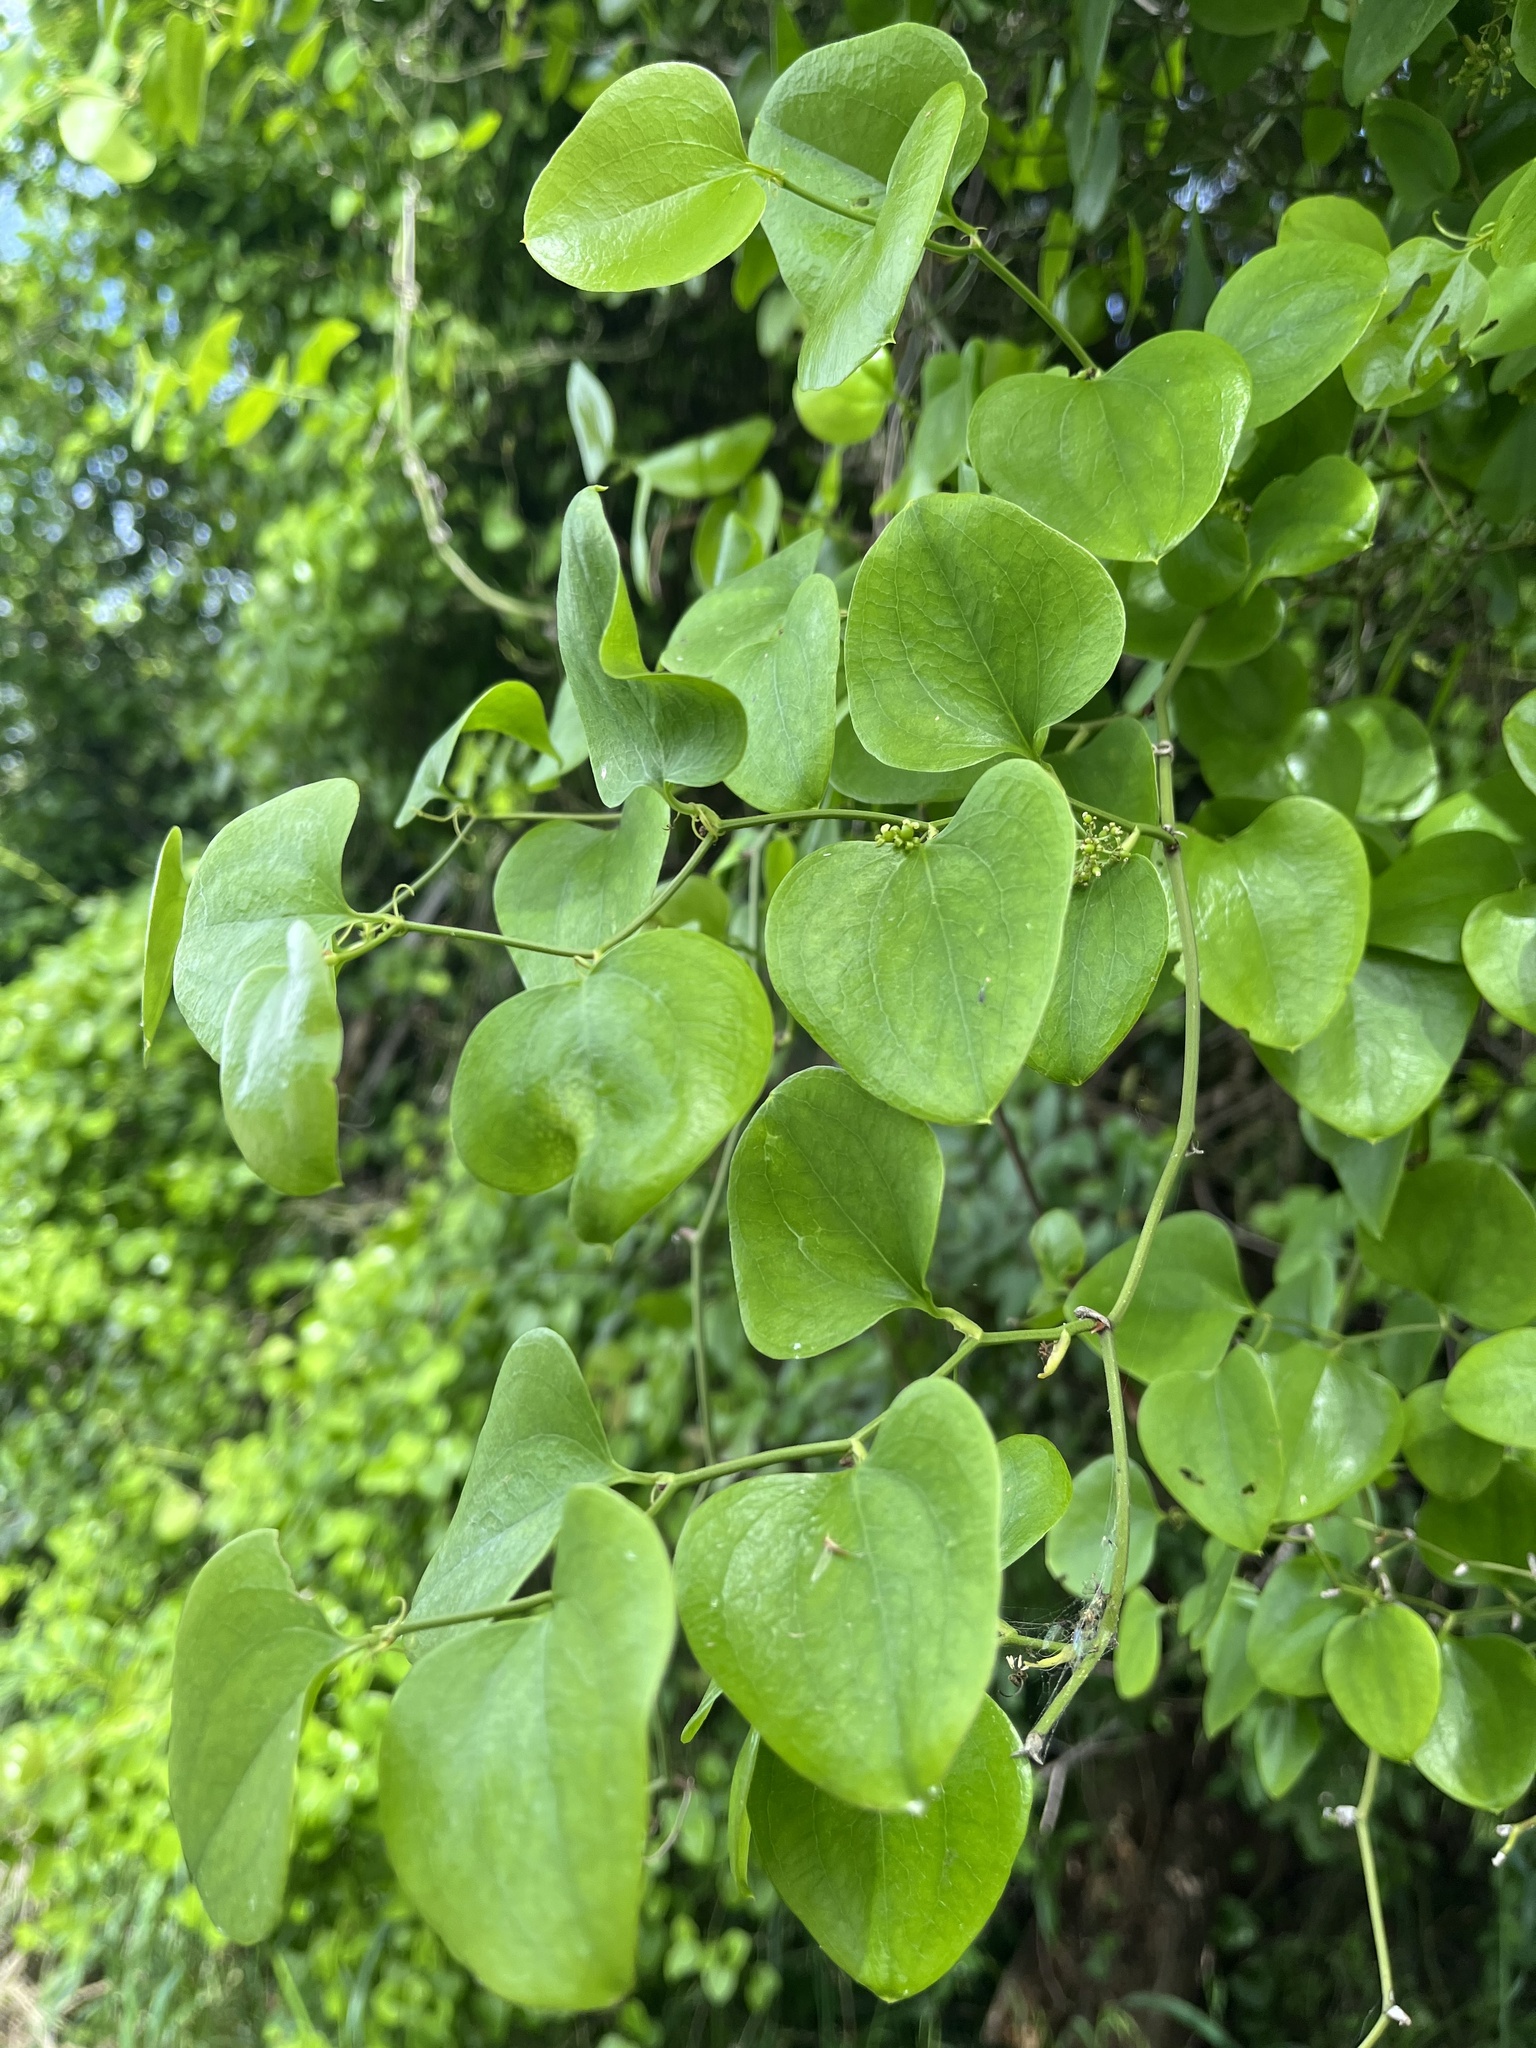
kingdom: Plantae
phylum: Tracheophyta
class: Liliopsida
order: Liliales
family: Smilacaceae
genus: Smilax
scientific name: Smilax bona-nox
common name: Catbrier
